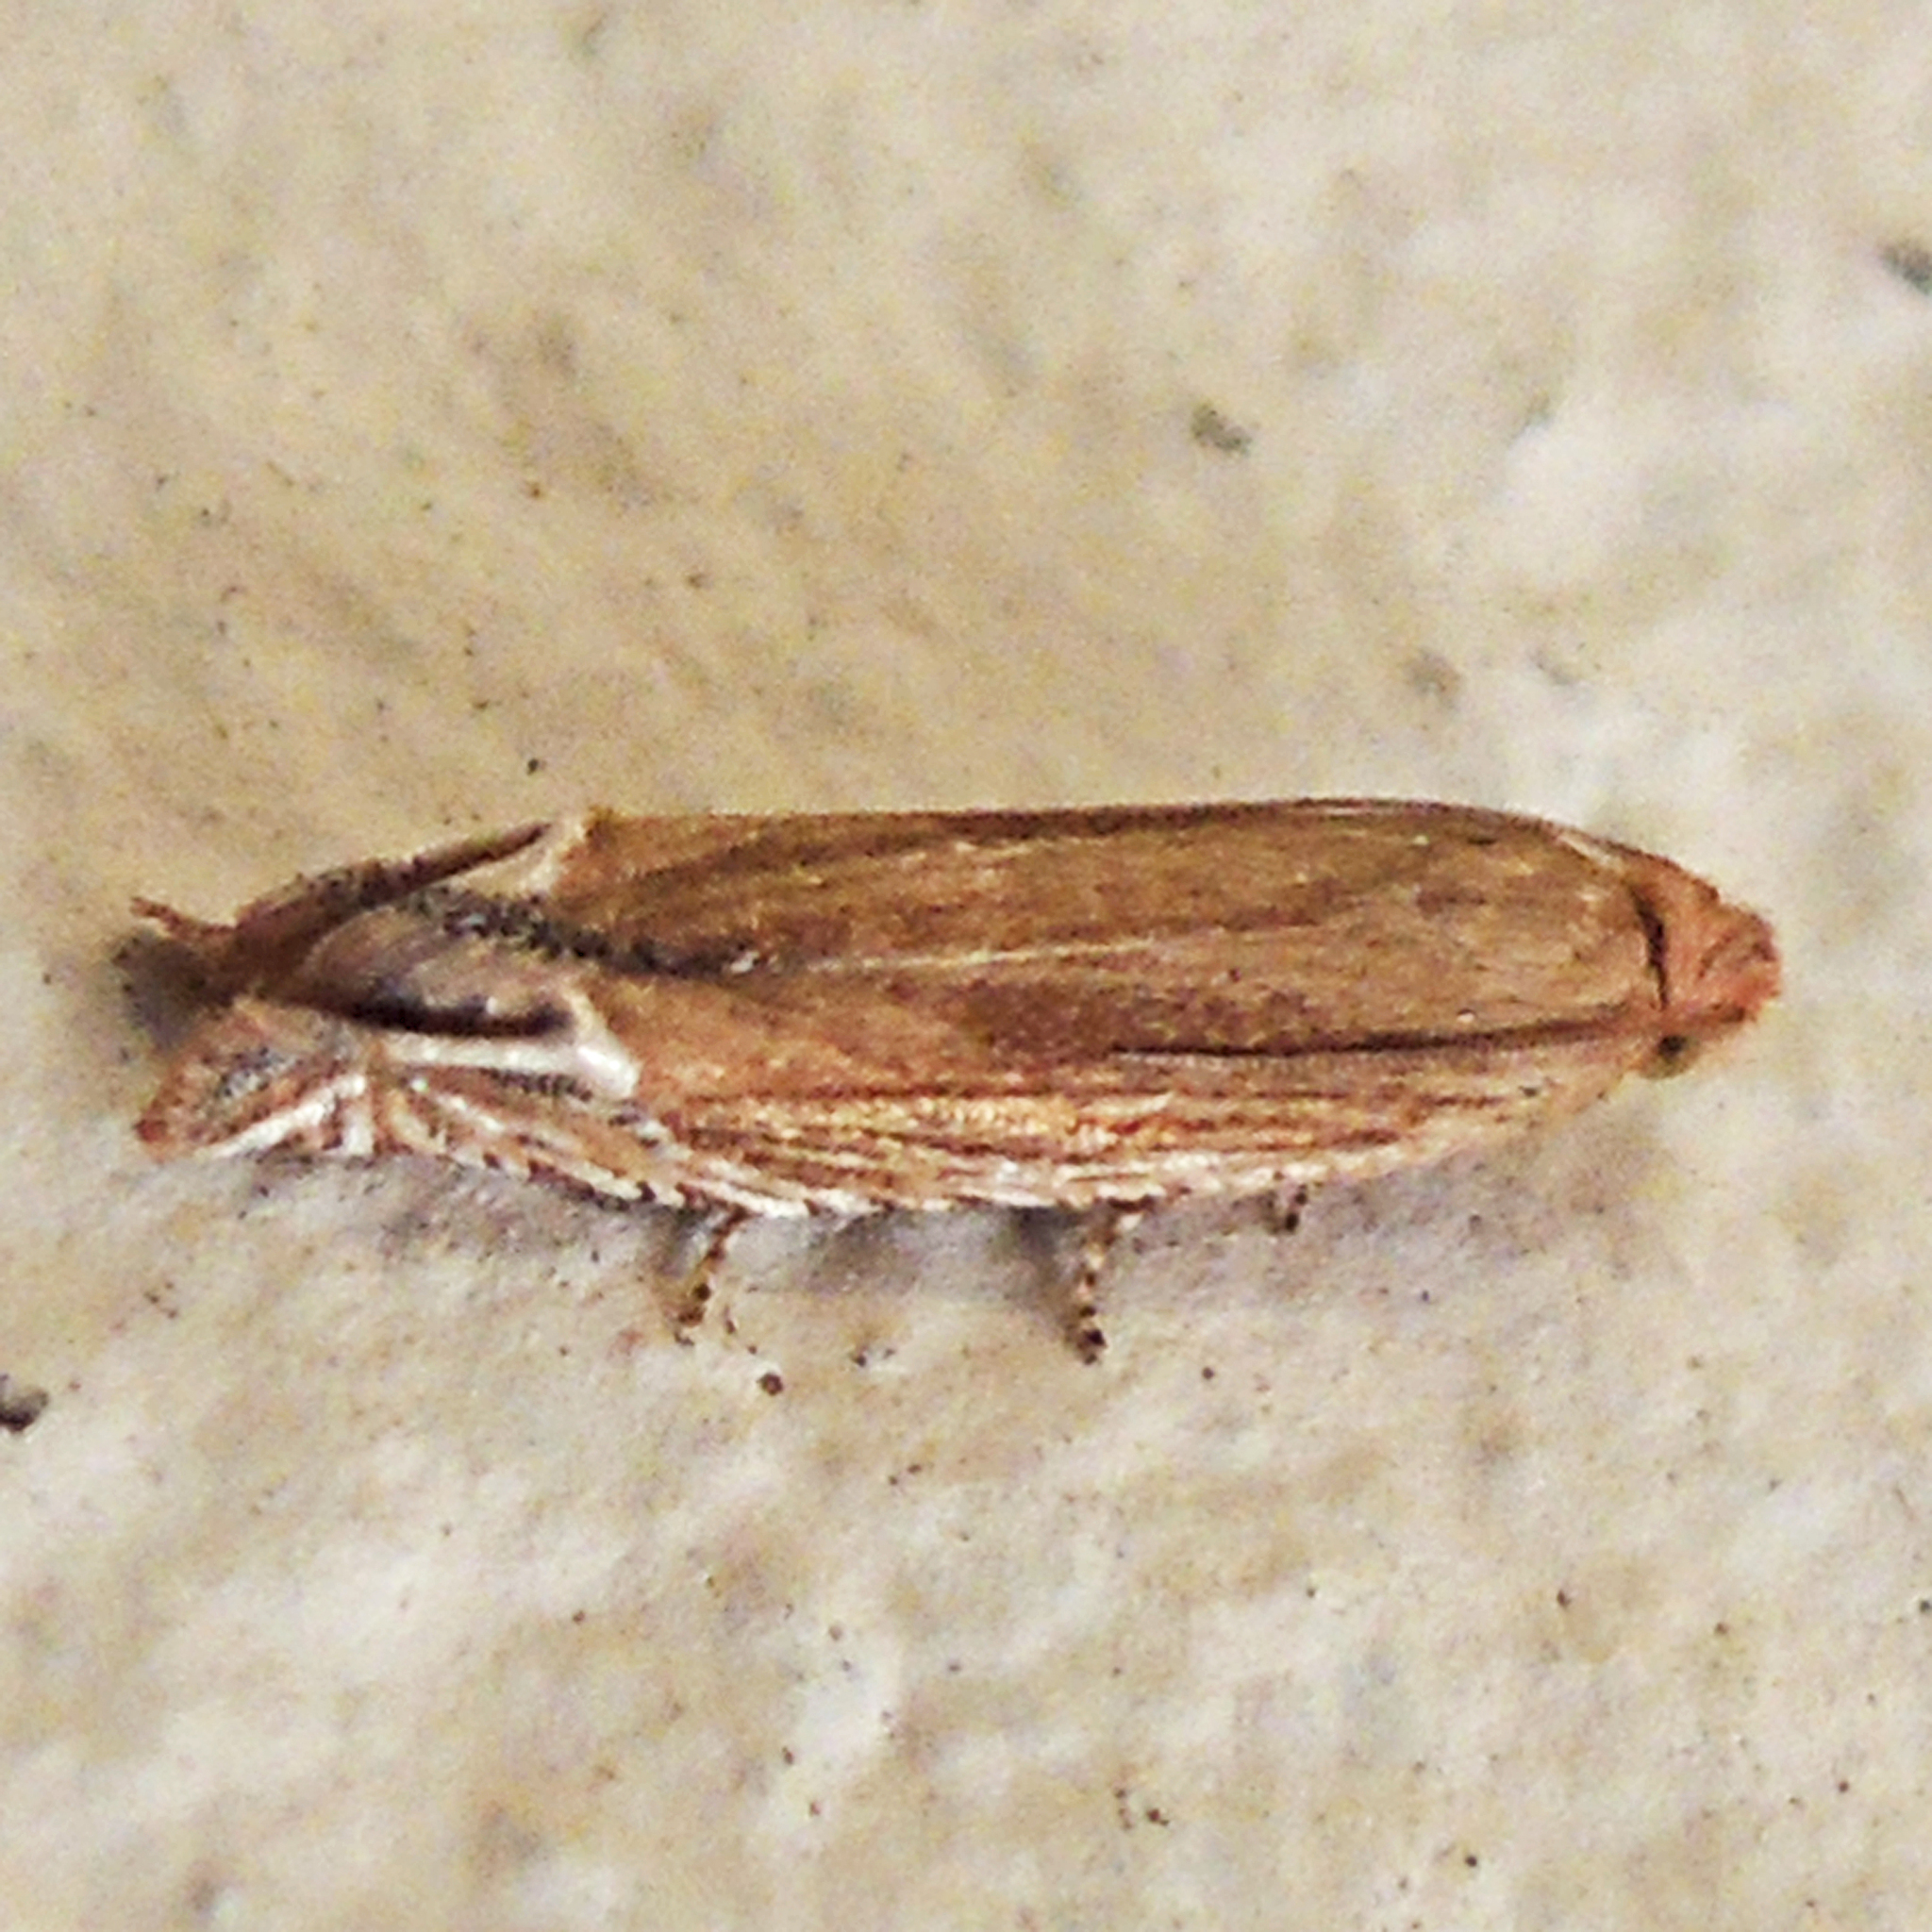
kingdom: Animalia
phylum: Arthropoda
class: Insecta
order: Lepidoptera
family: Tortricidae
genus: Pelochrista
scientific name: Pelochrista cataclystiana
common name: Goldenrod pelochrista moth
